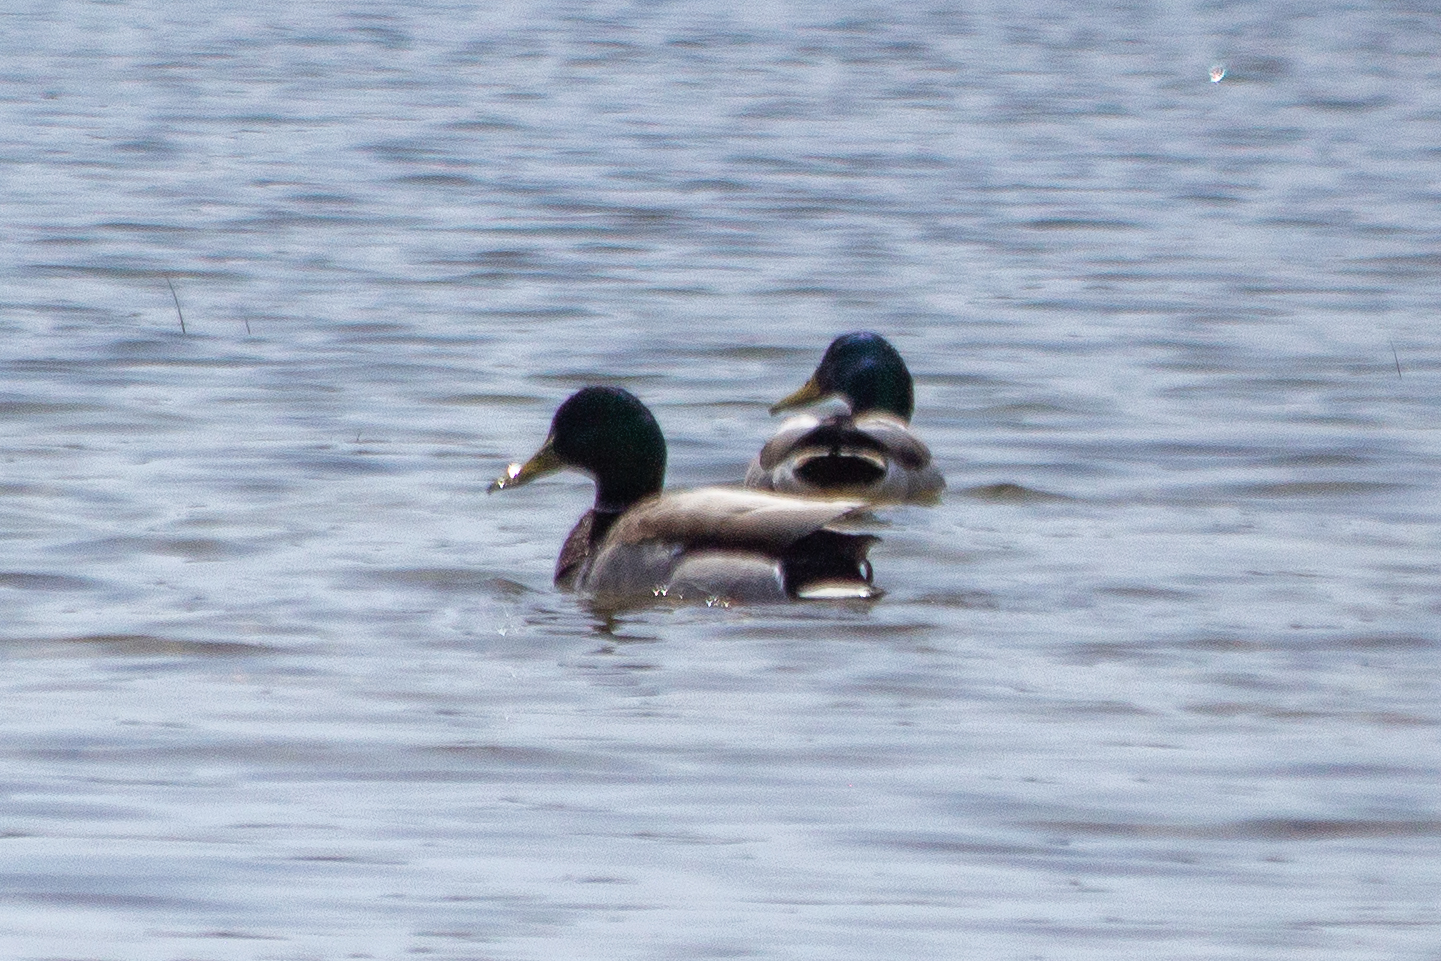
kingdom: Animalia
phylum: Chordata
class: Aves
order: Anseriformes
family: Anatidae
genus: Anas
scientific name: Anas platyrhynchos
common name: Mallard
